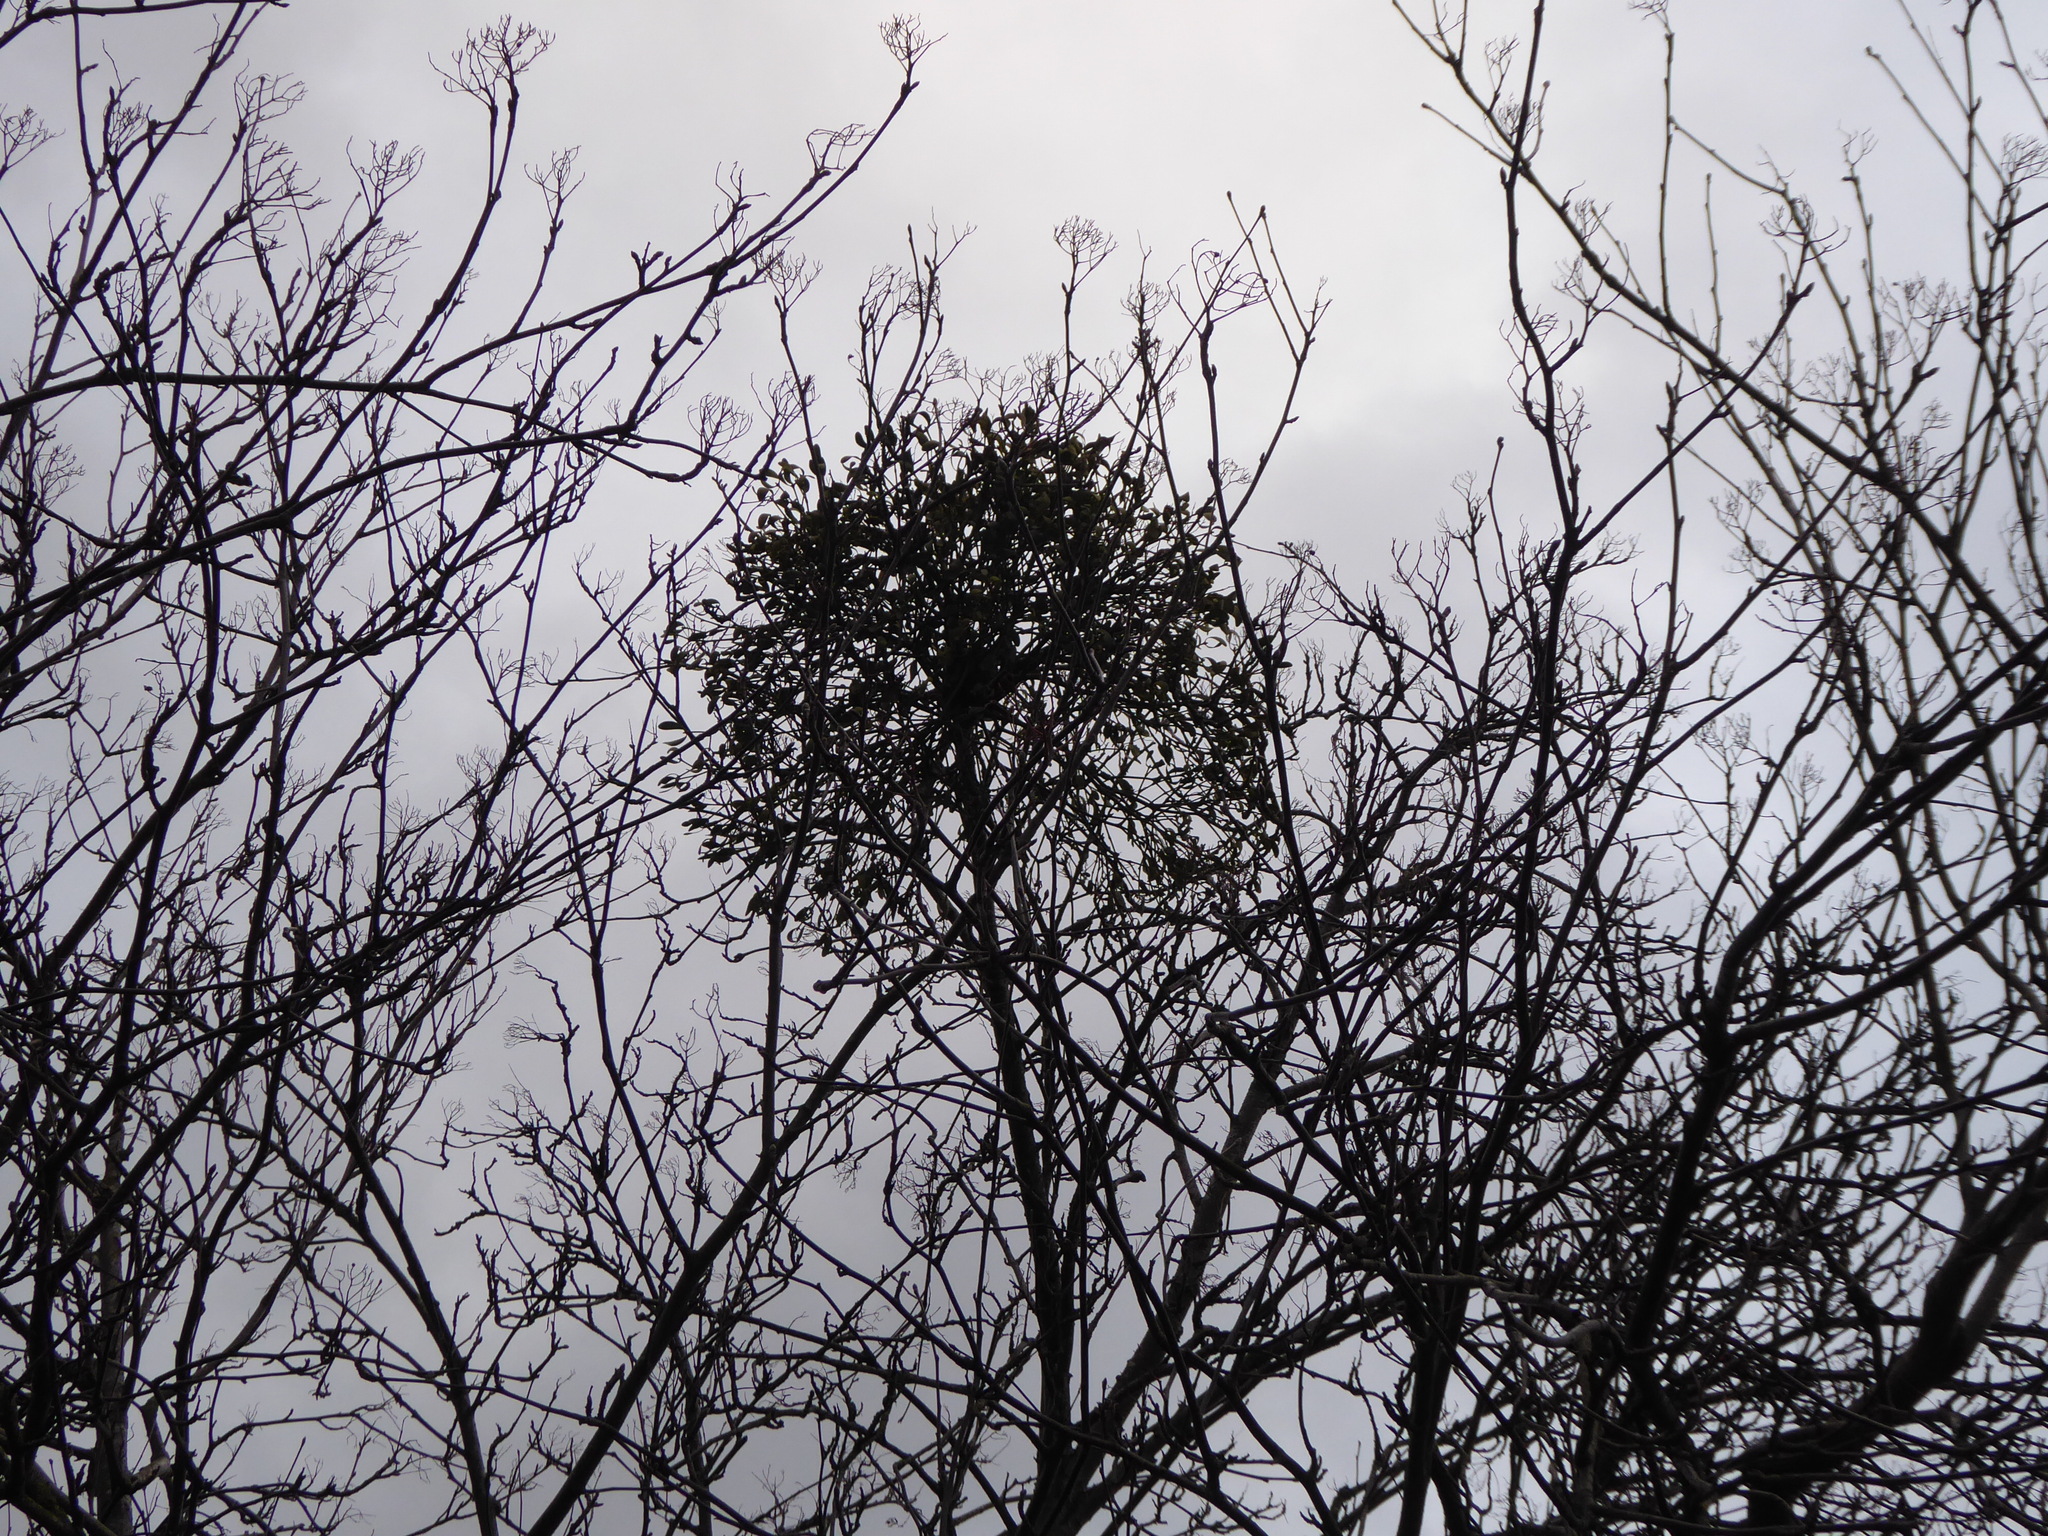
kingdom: Plantae
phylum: Tracheophyta
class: Magnoliopsida
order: Santalales
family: Viscaceae
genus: Viscum
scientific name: Viscum album
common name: Mistletoe
